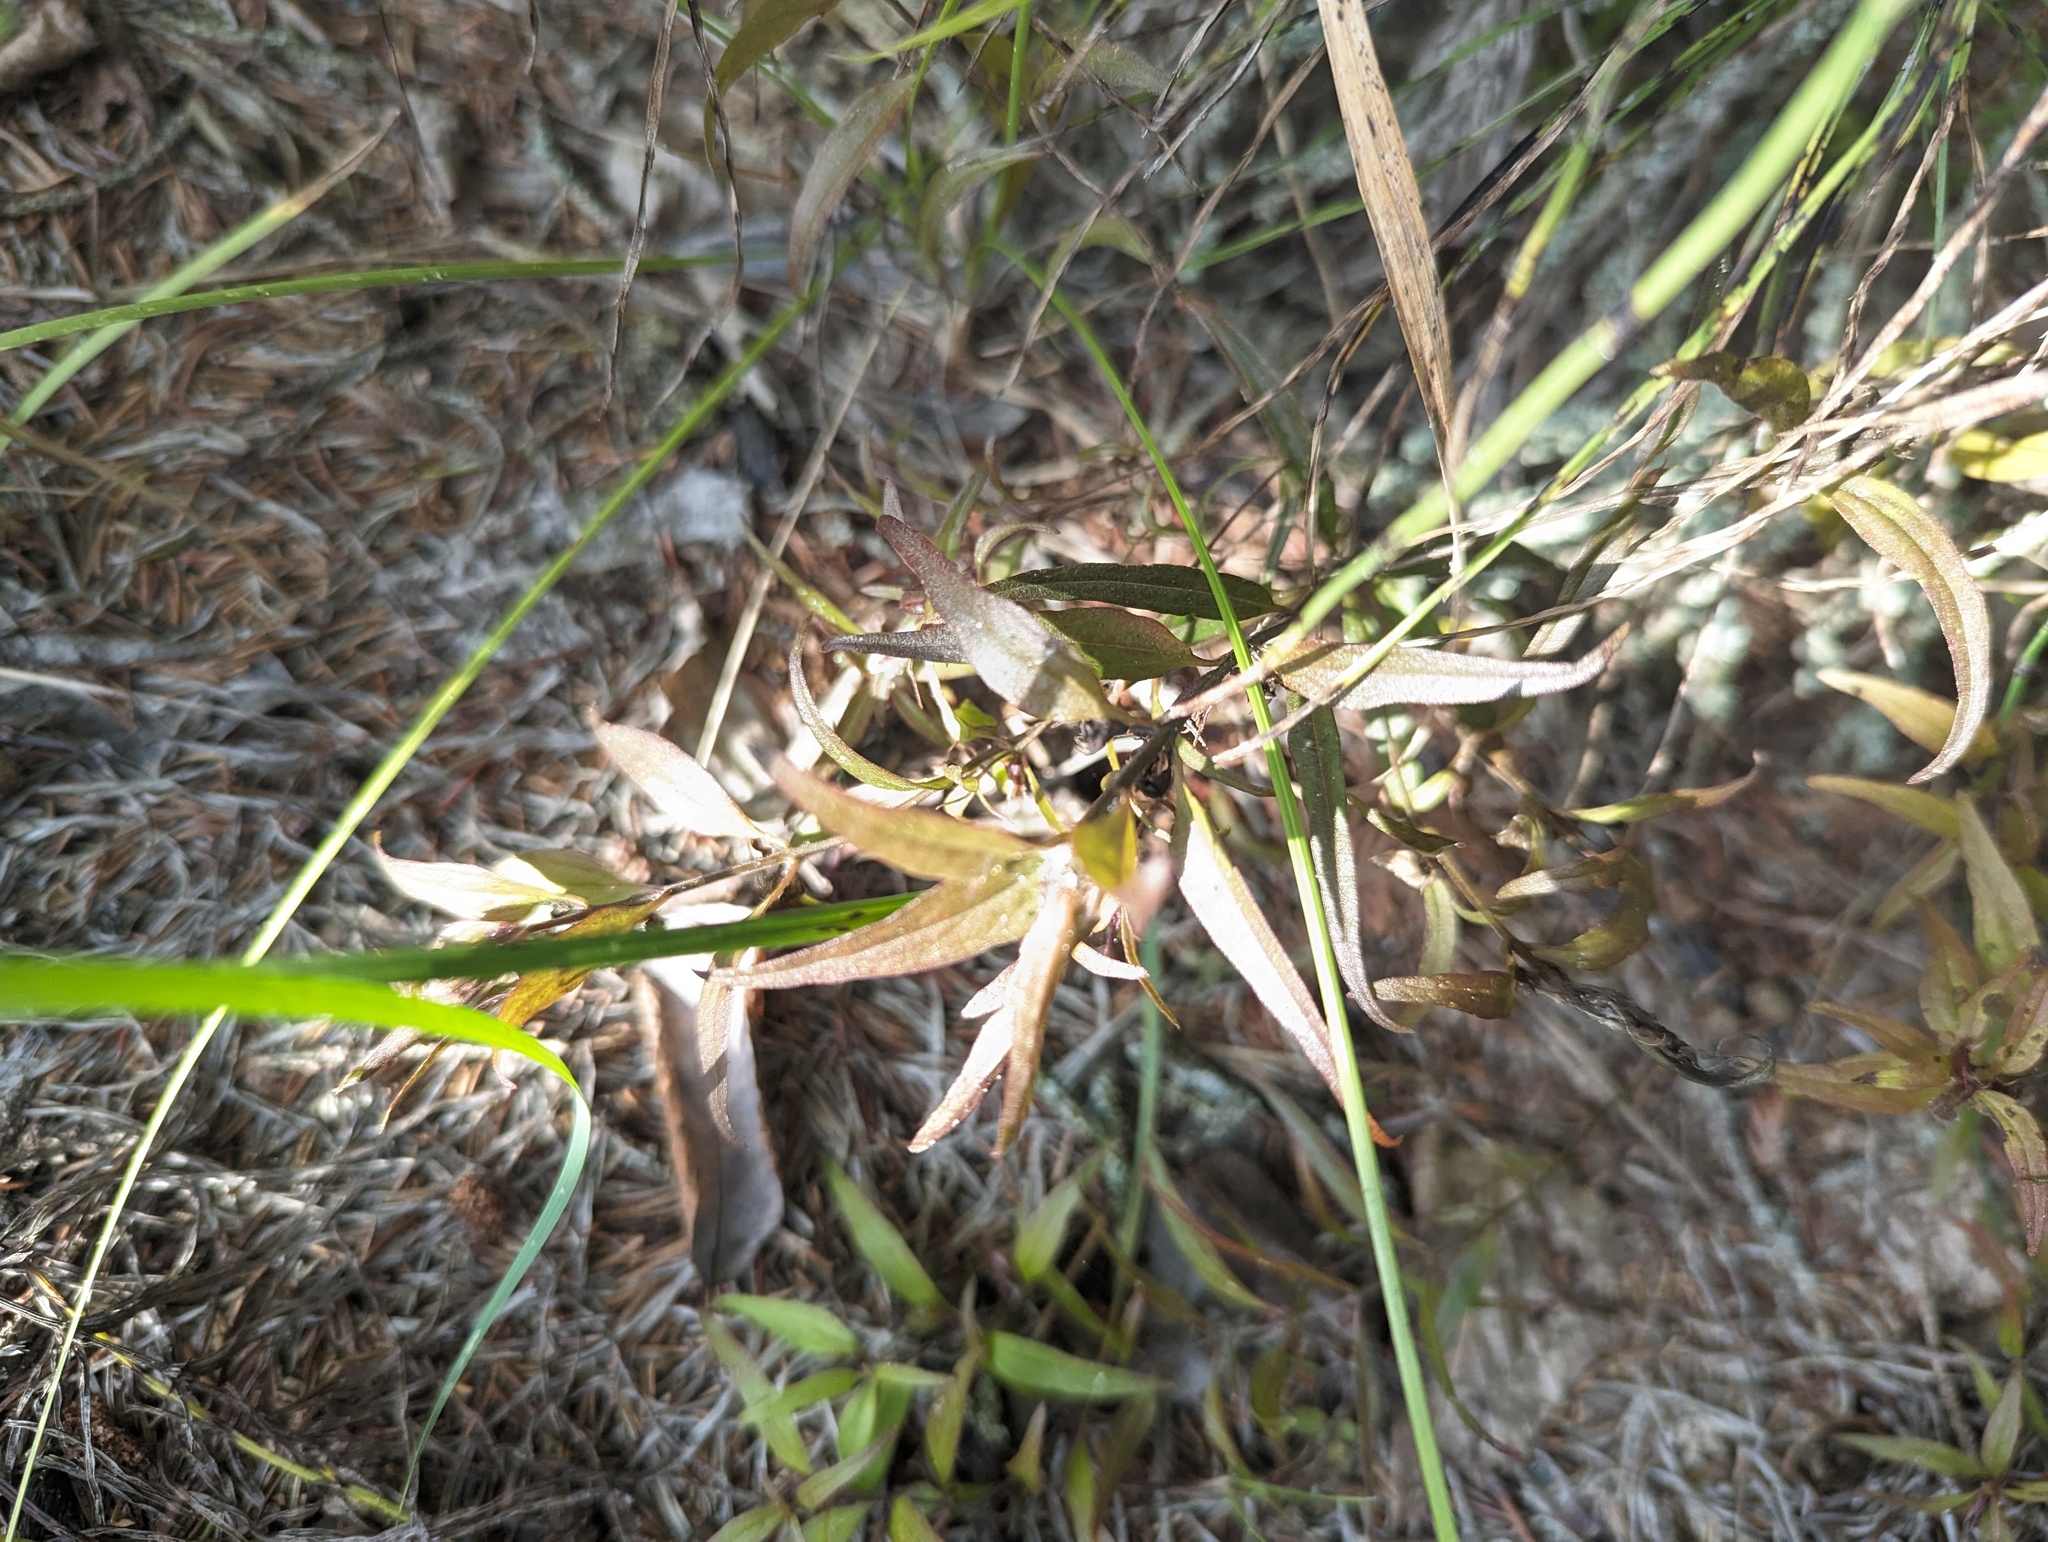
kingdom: Plantae
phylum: Tracheophyta
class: Magnoliopsida
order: Lamiales
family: Orobanchaceae
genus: Melampyrum
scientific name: Melampyrum lineare
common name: American cow-wheat
